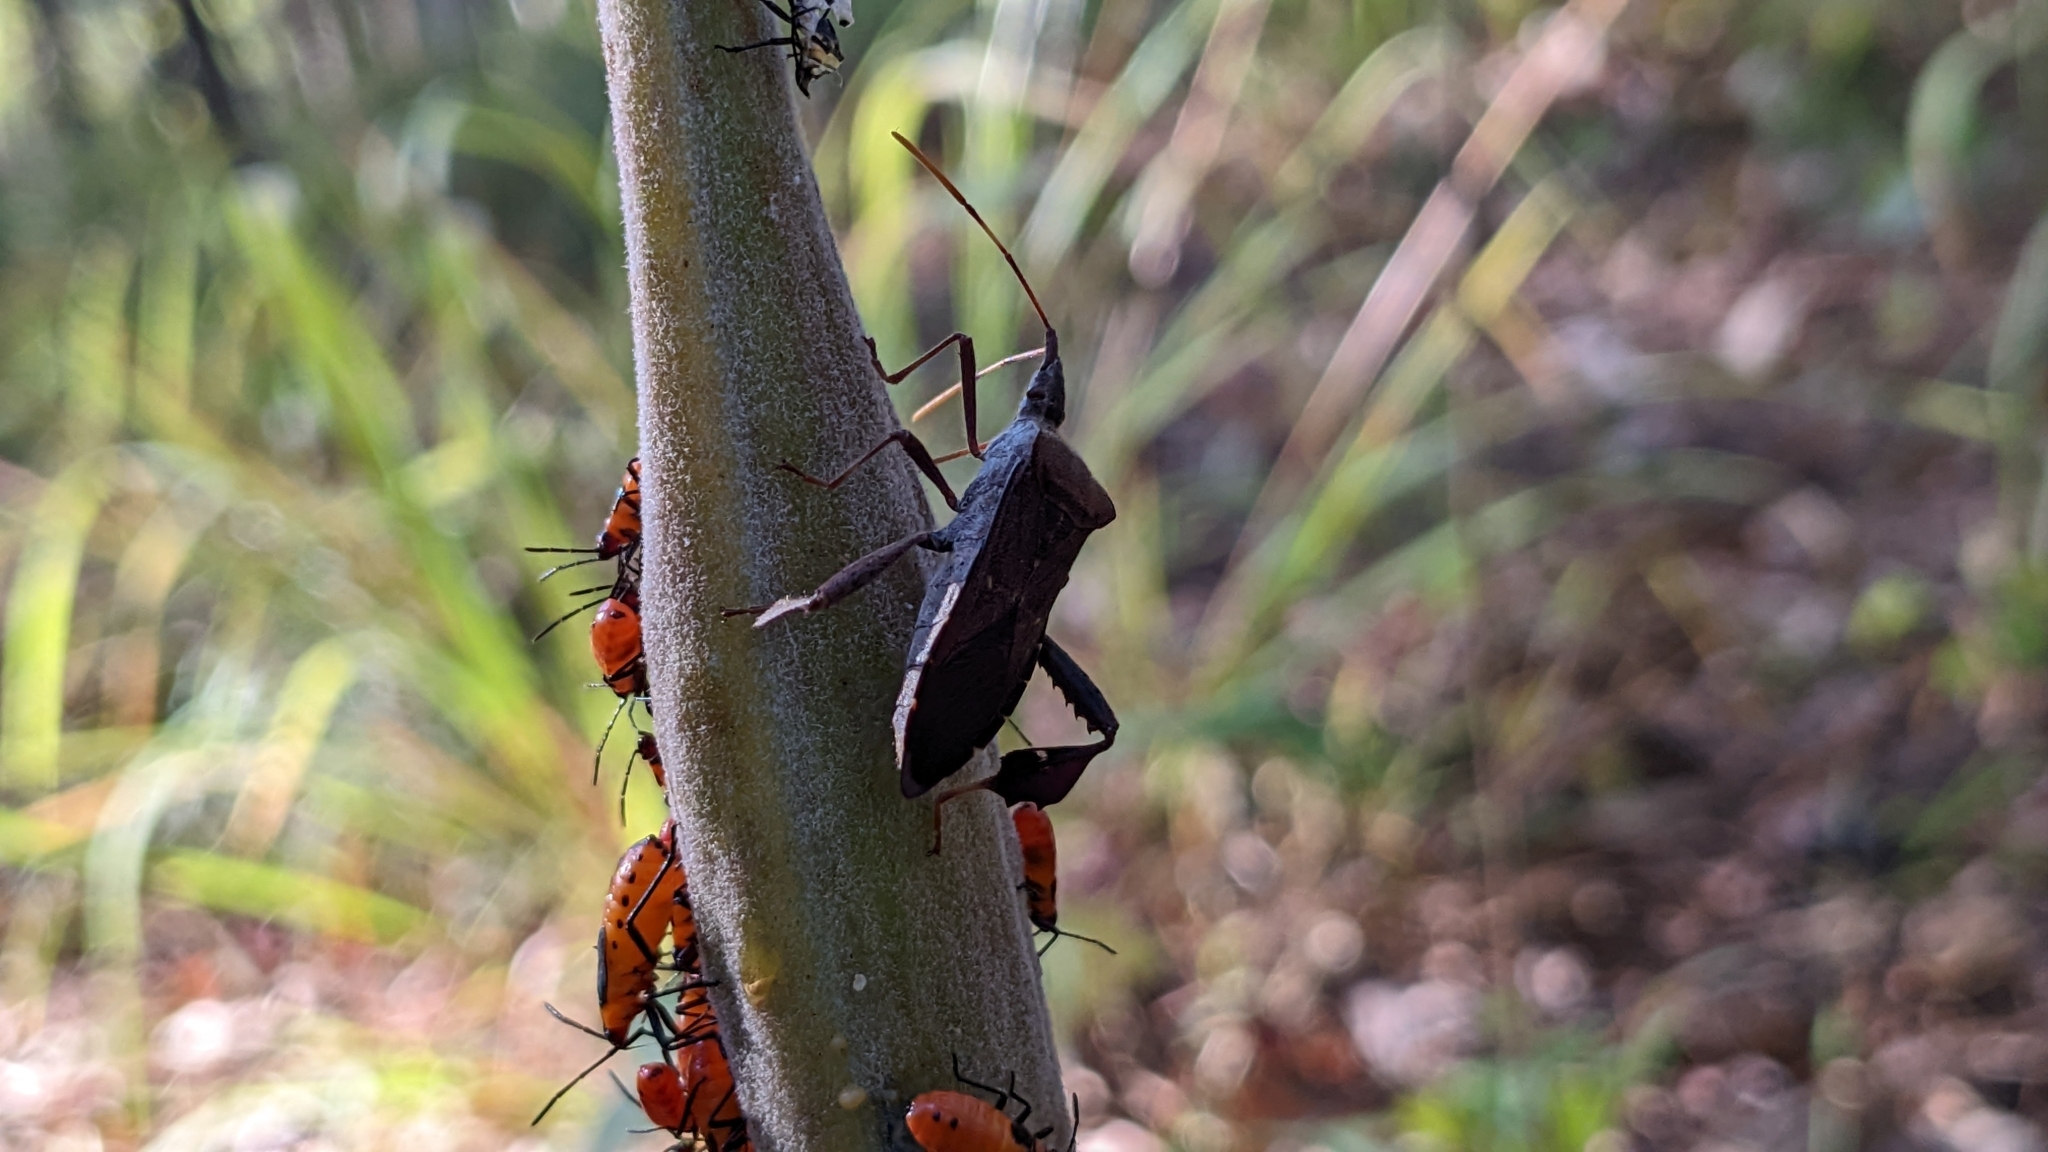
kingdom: Animalia
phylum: Arthropoda
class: Insecta
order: Hemiptera
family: Coreidae
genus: Leptoglossus
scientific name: Leptoglossus oppositus
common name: Northern leaf-footed bug
